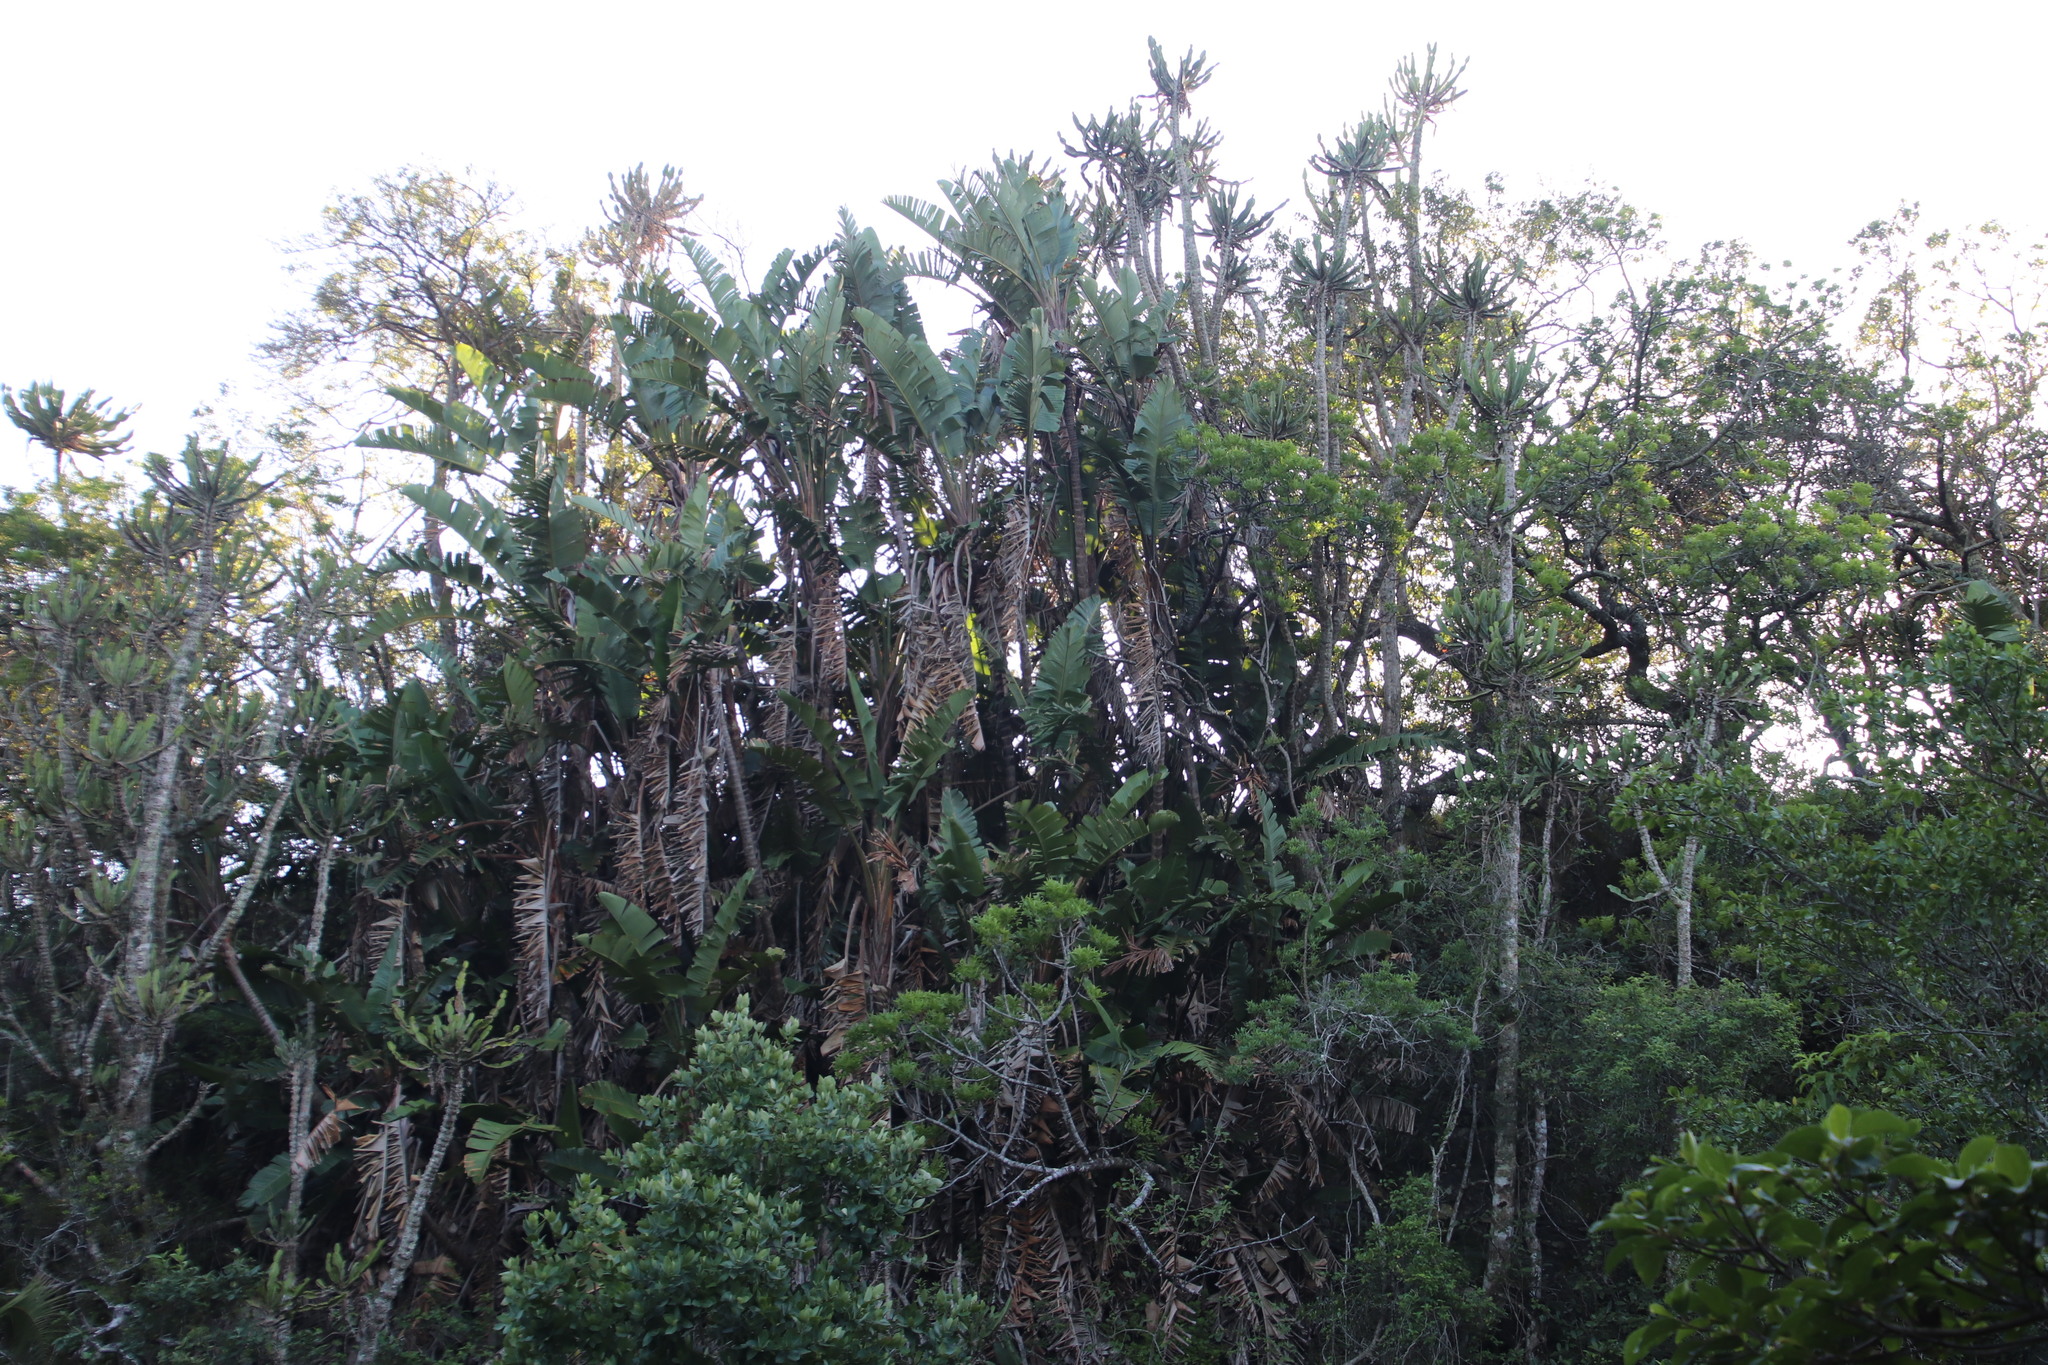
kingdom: Plantae
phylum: Tracheophyta
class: Liliopsida
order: Zingiberales
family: Strelitziaceae
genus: Strelitzia
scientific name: Strelitzia nicolai
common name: Bird-of-paradise tree
